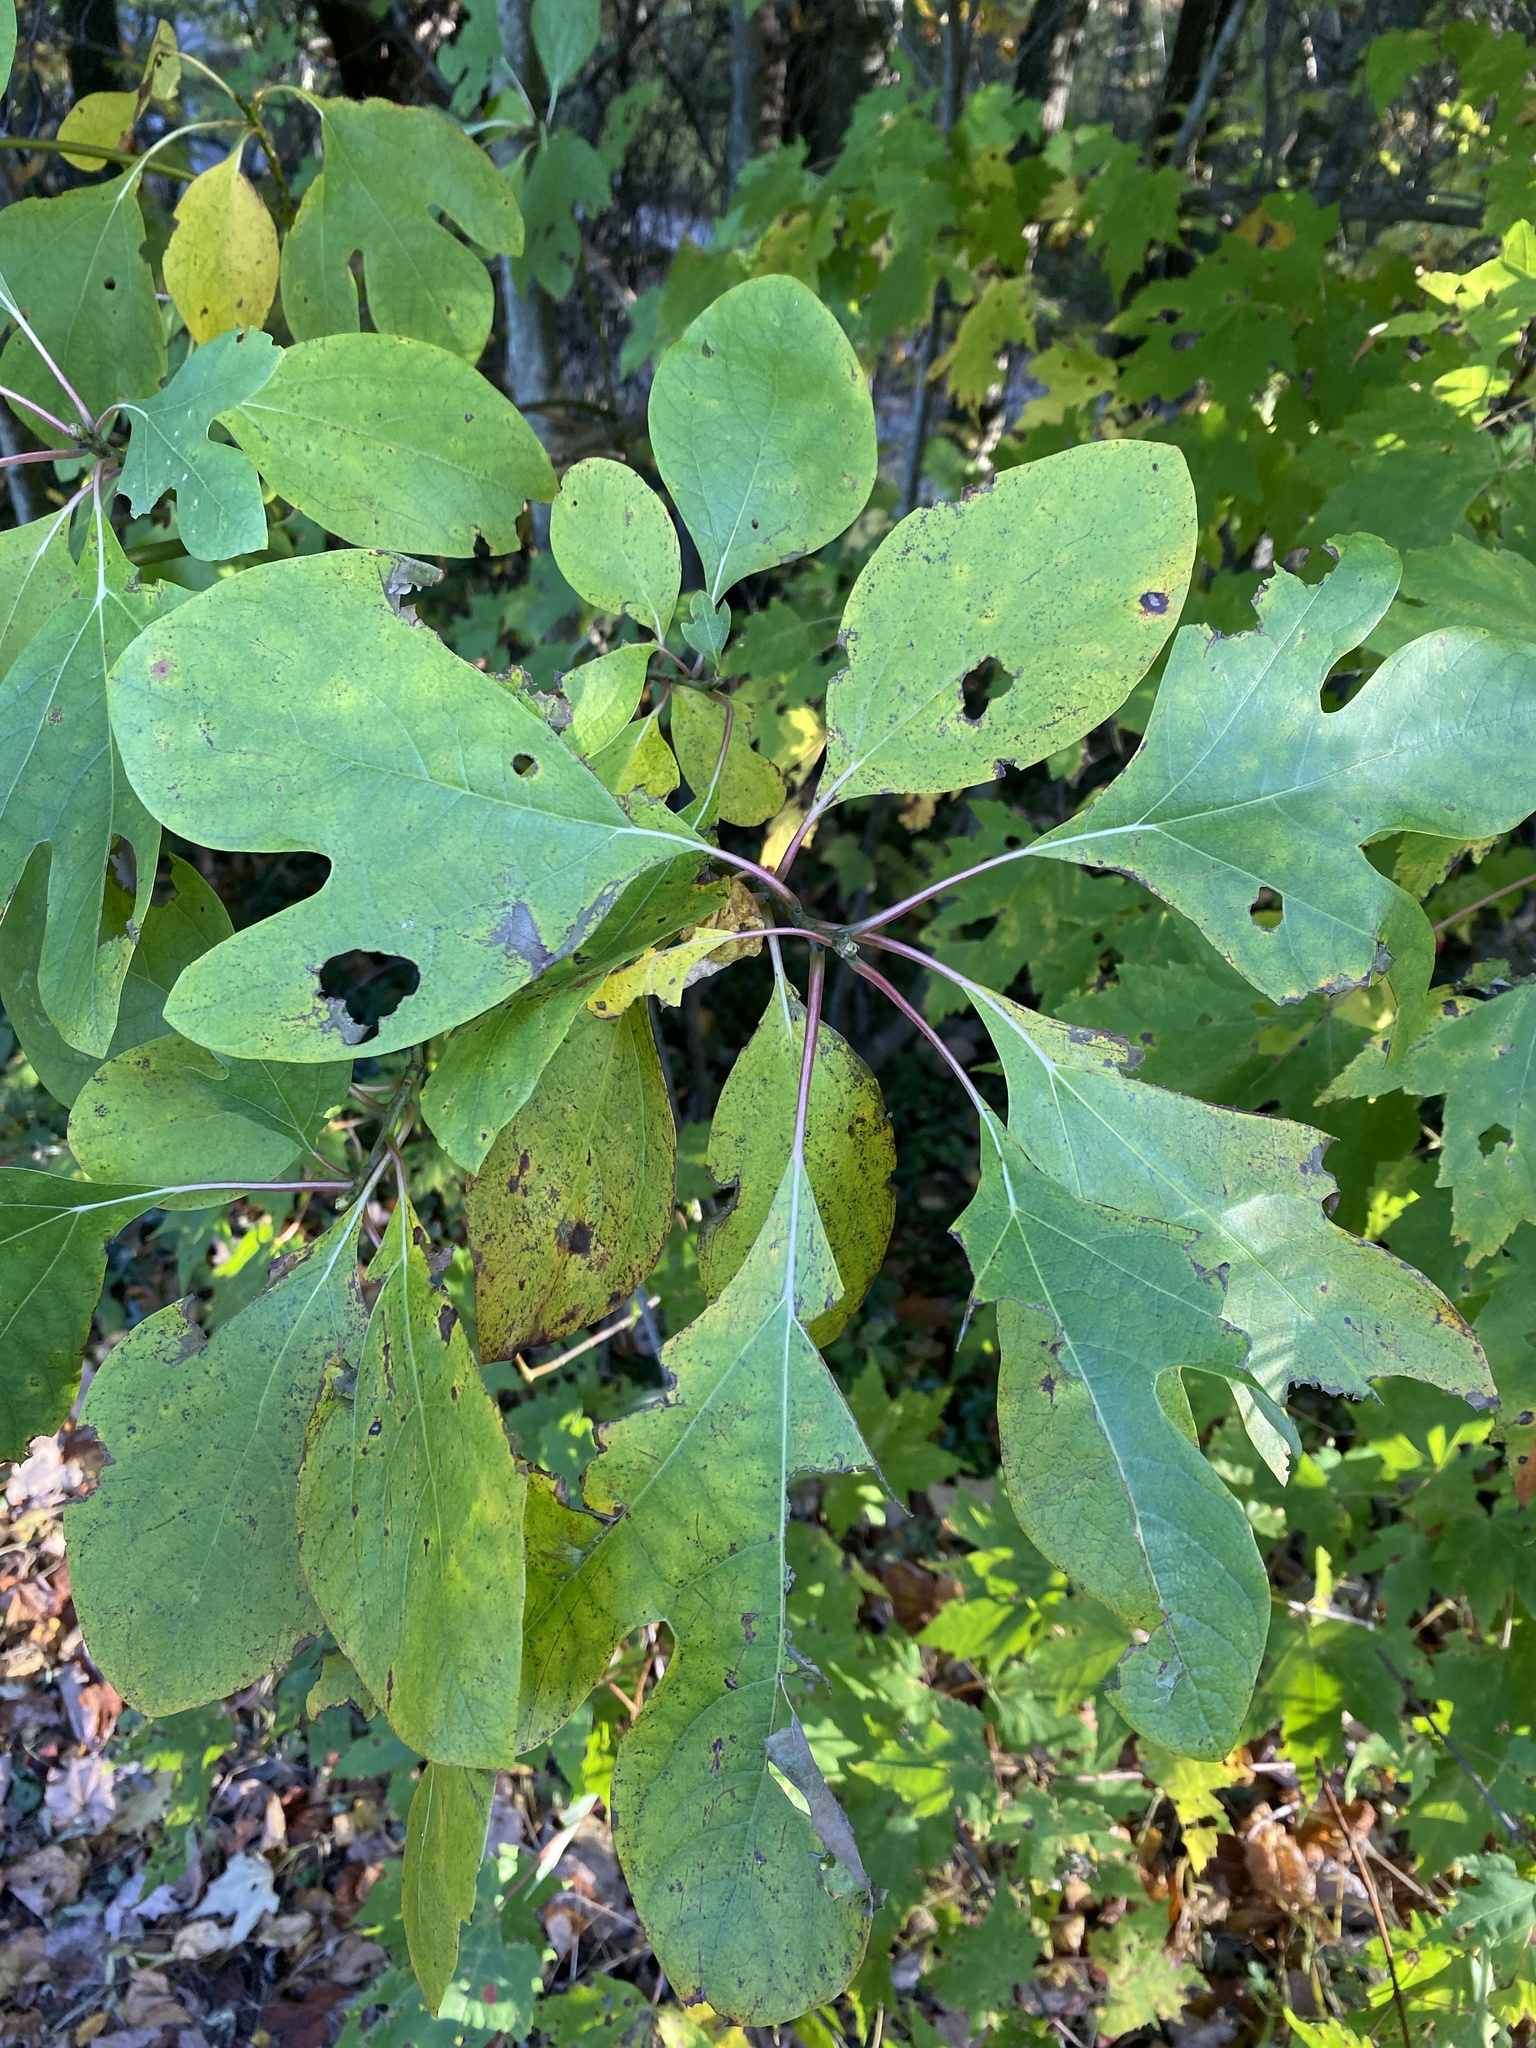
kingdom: Plantae
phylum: Tracheophyta
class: Magnoliopsida
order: Laurales
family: Lauraceae
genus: Sassafras
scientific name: Sassafras albidum
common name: Sassafras
